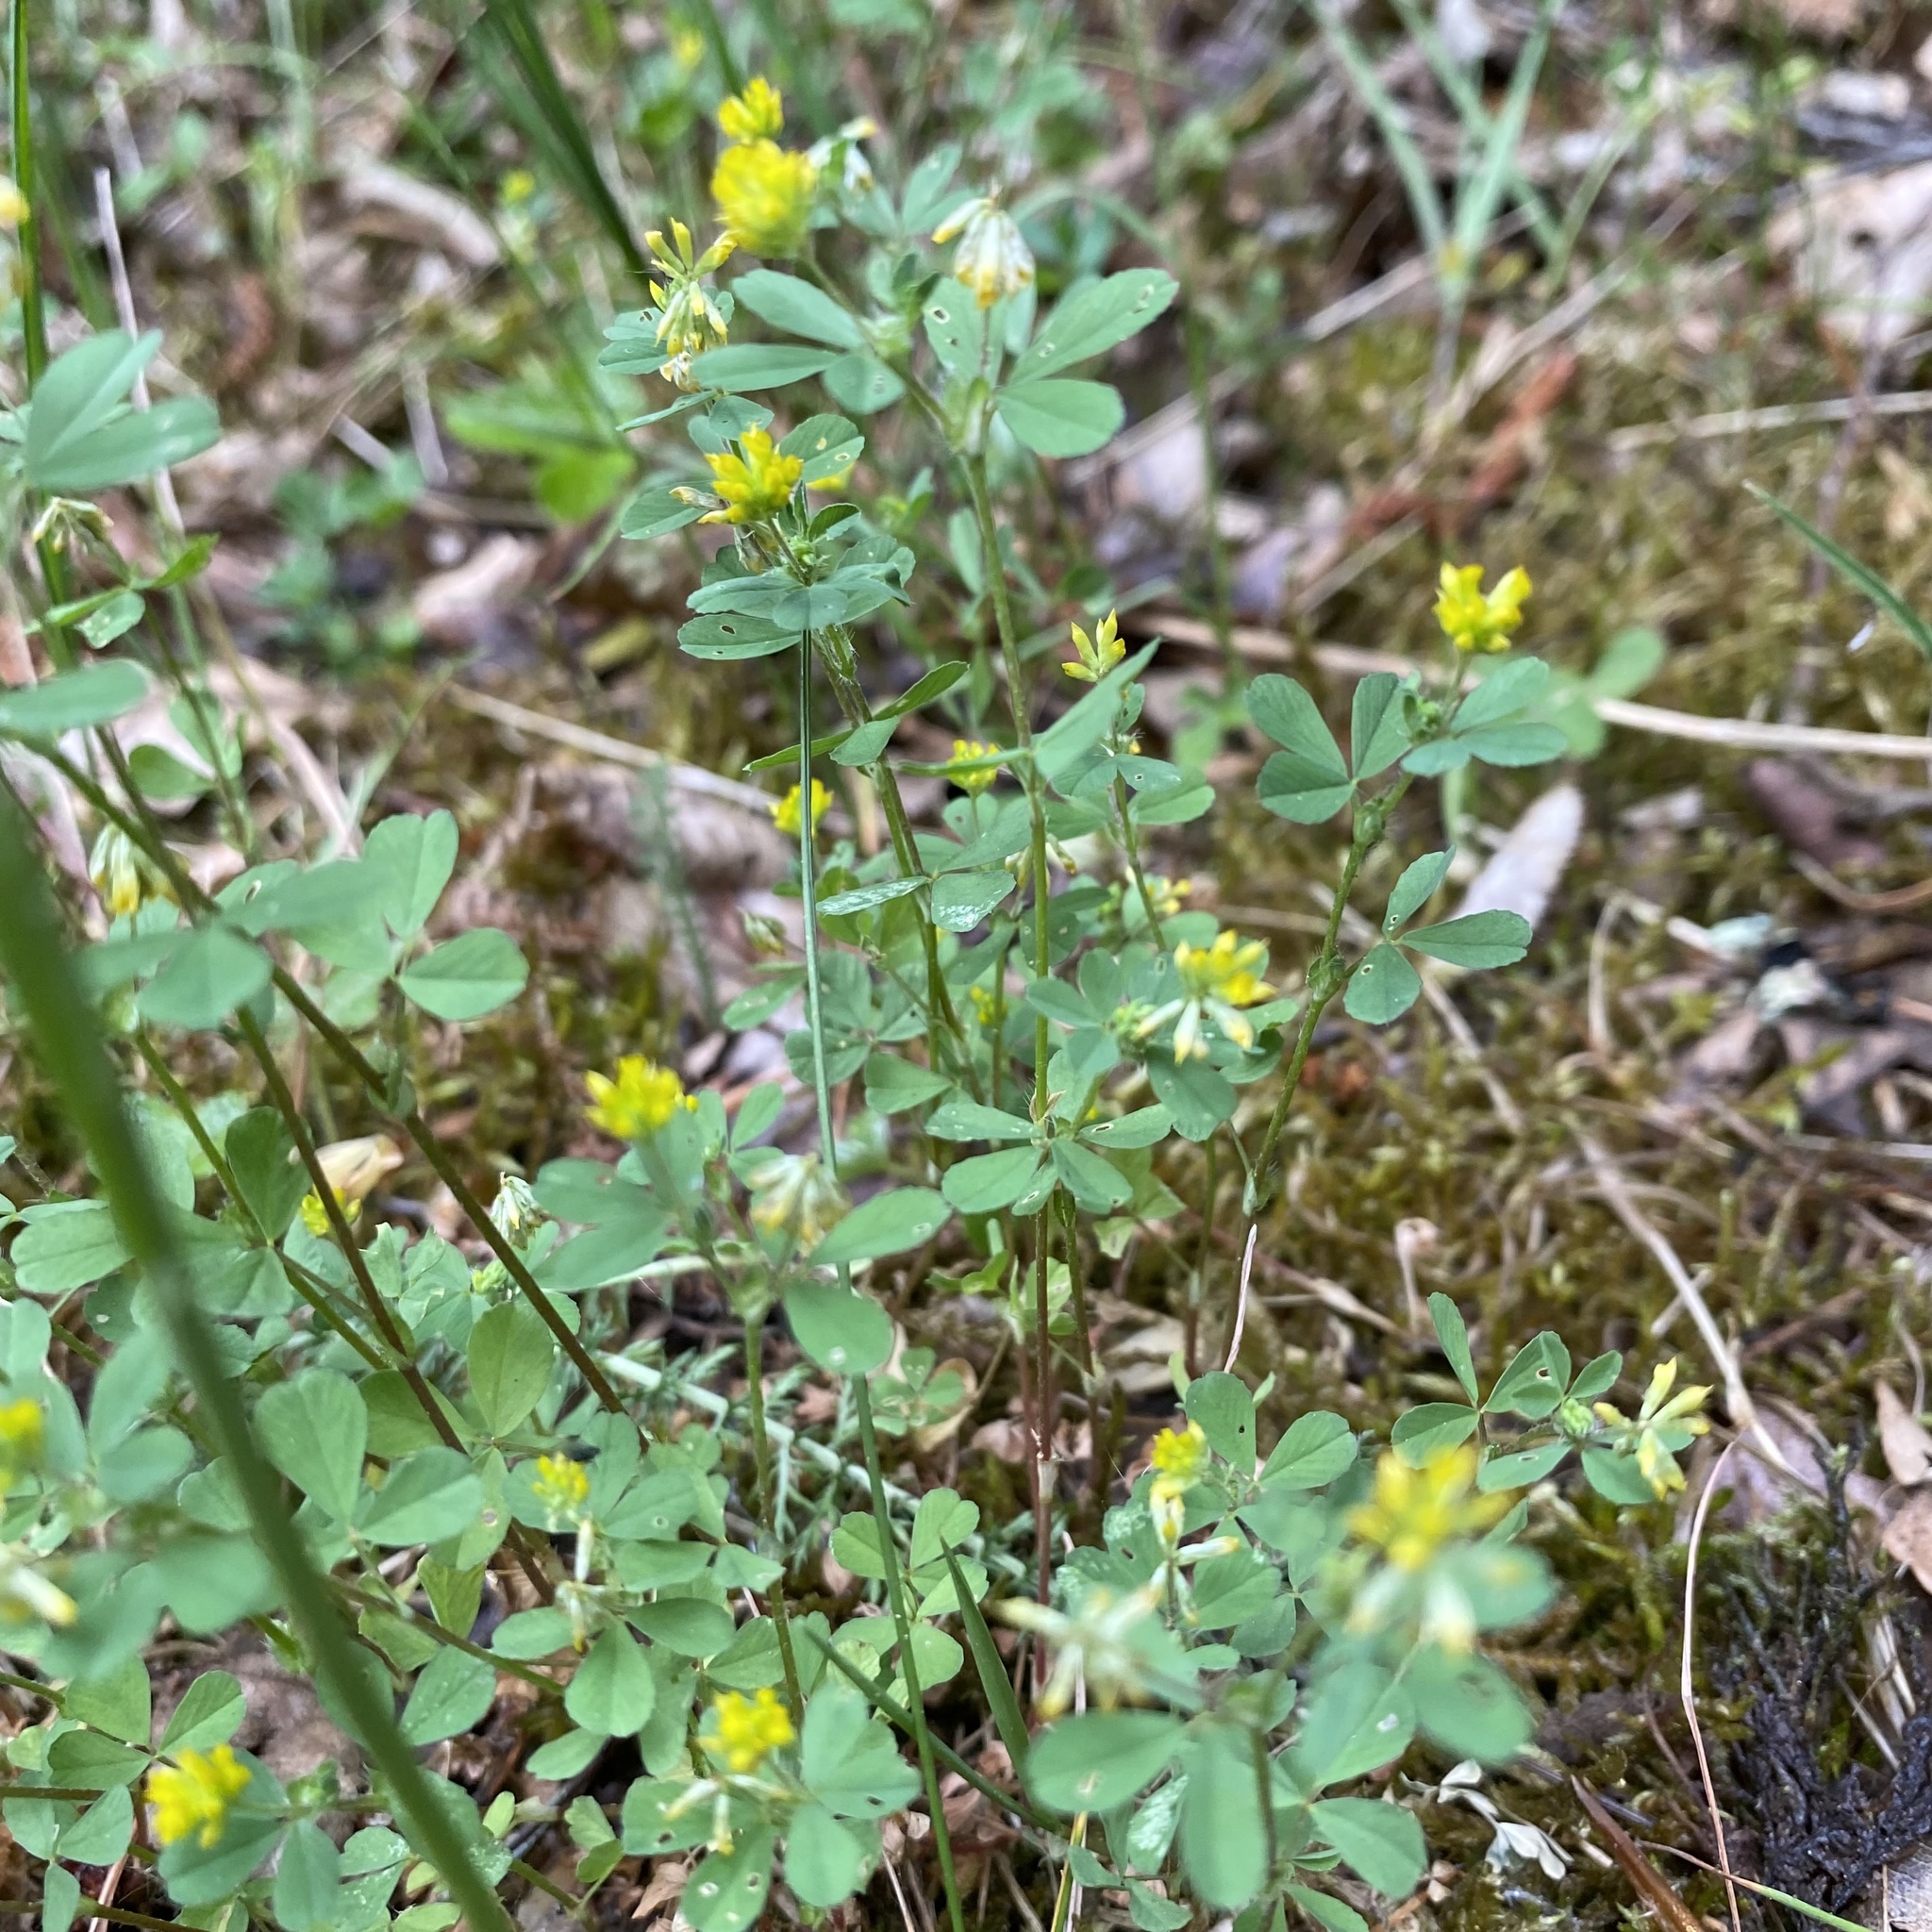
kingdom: Plantae
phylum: Tracheophyta
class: Magnoliopsida
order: Fabales
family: Fabaceae
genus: Trifolium
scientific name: Trifolium dubium
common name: Suckling clover
